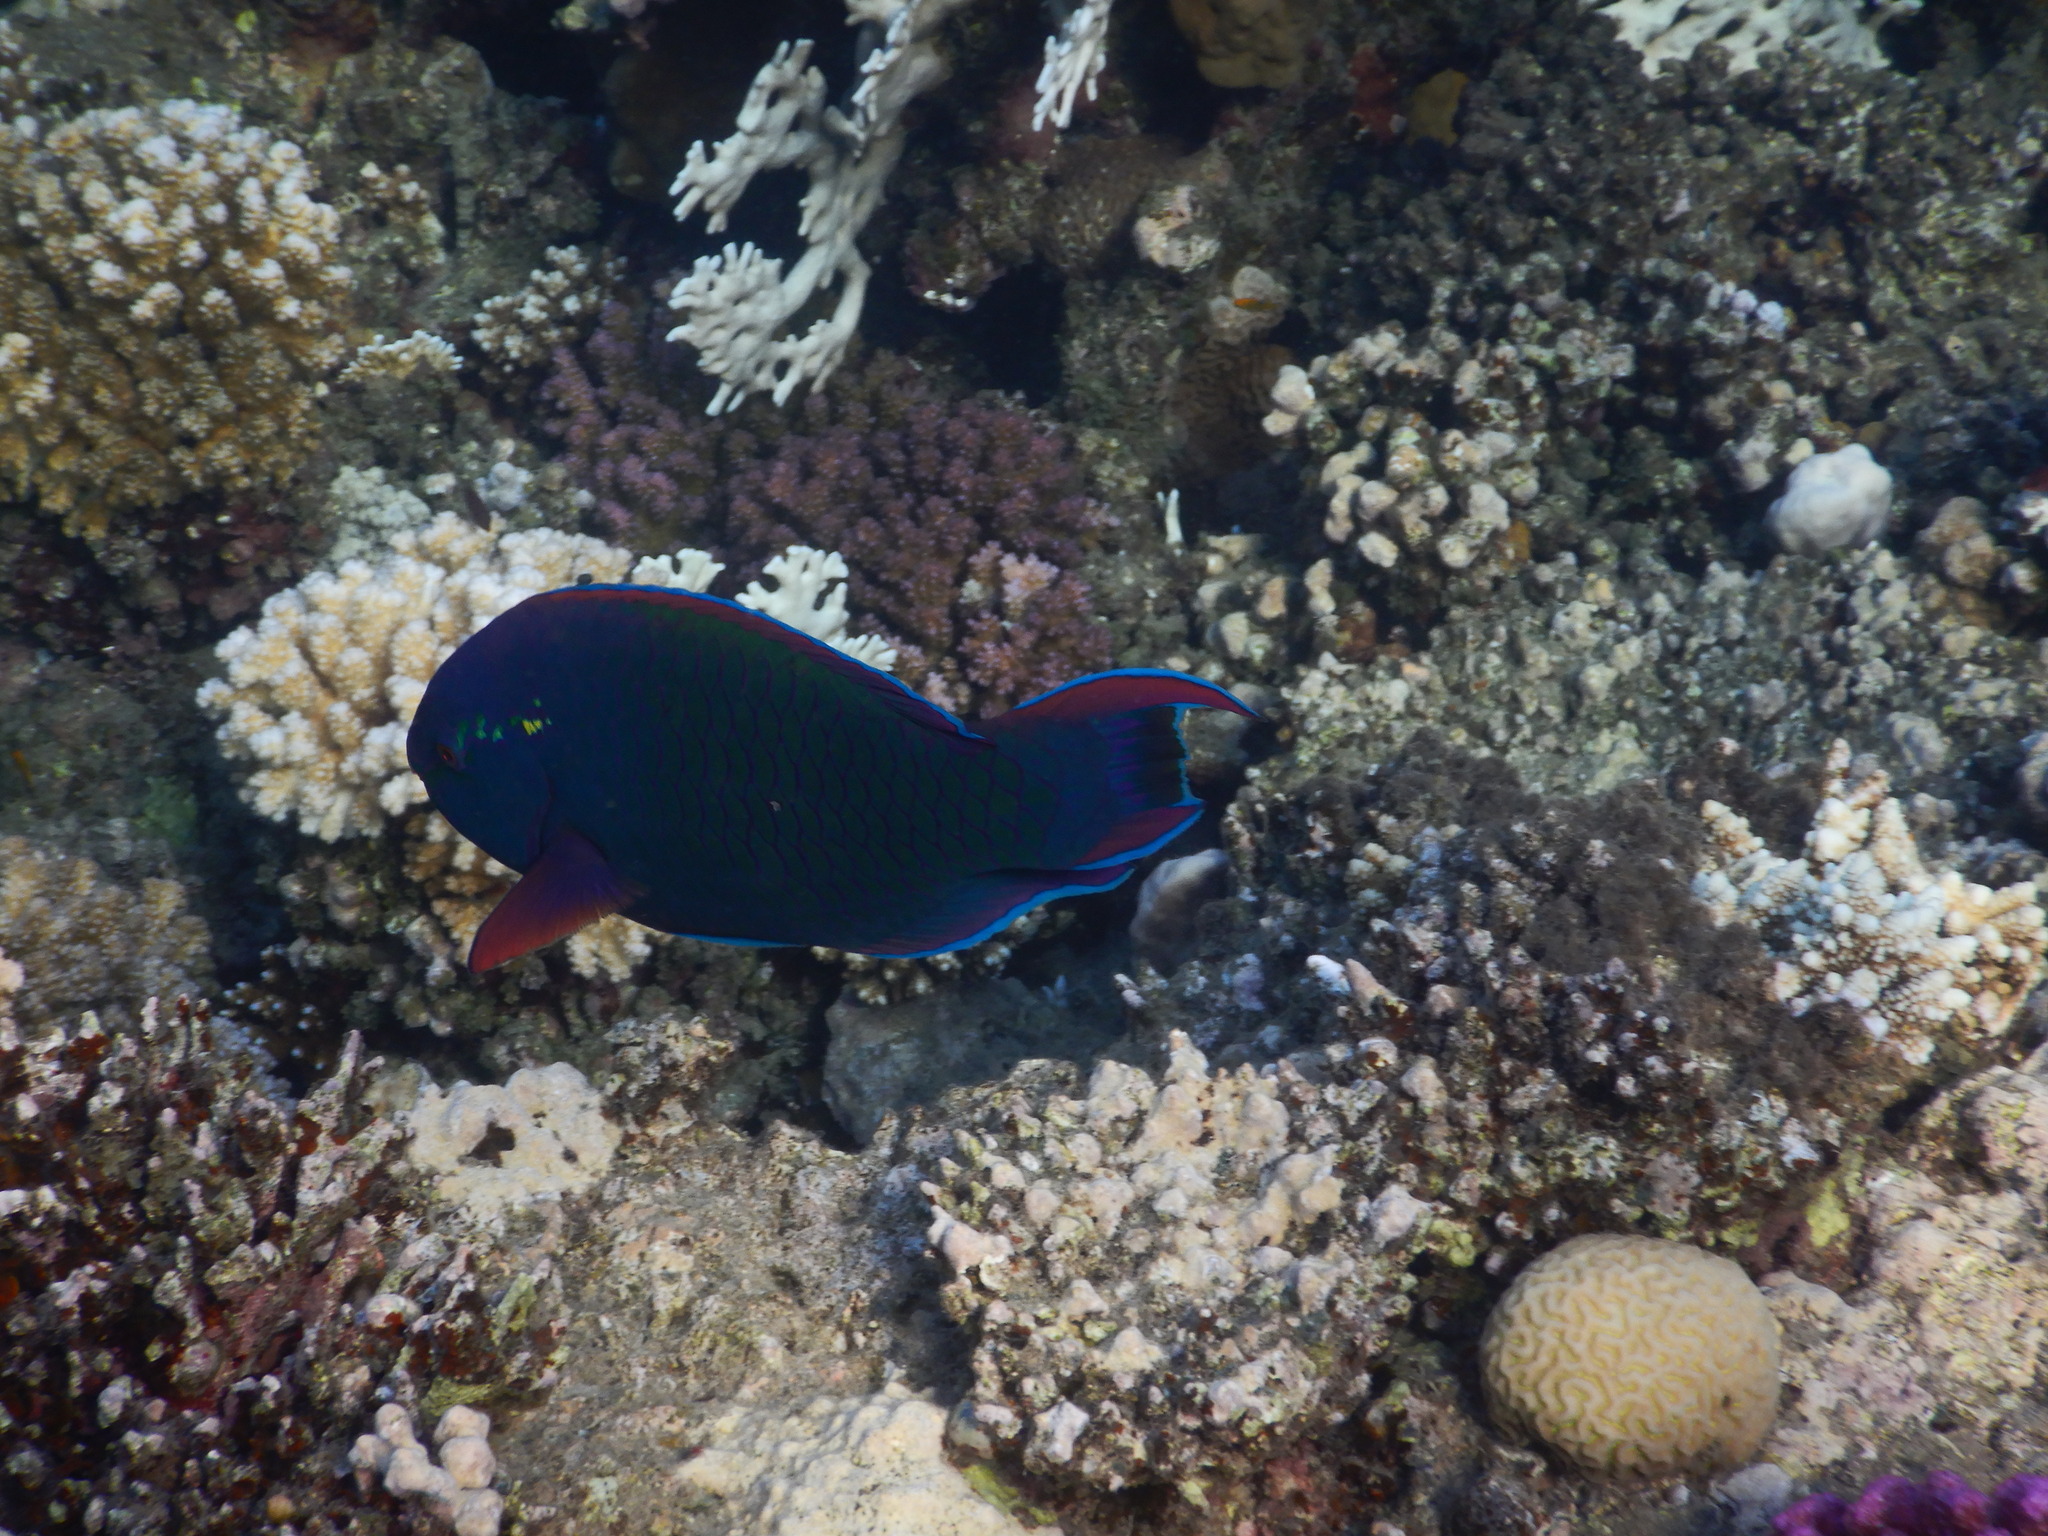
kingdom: Animalia
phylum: Chordata
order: Perciformes
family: Scaridae
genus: Scarus
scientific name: Scarus niger
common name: Dusky parrotfish
